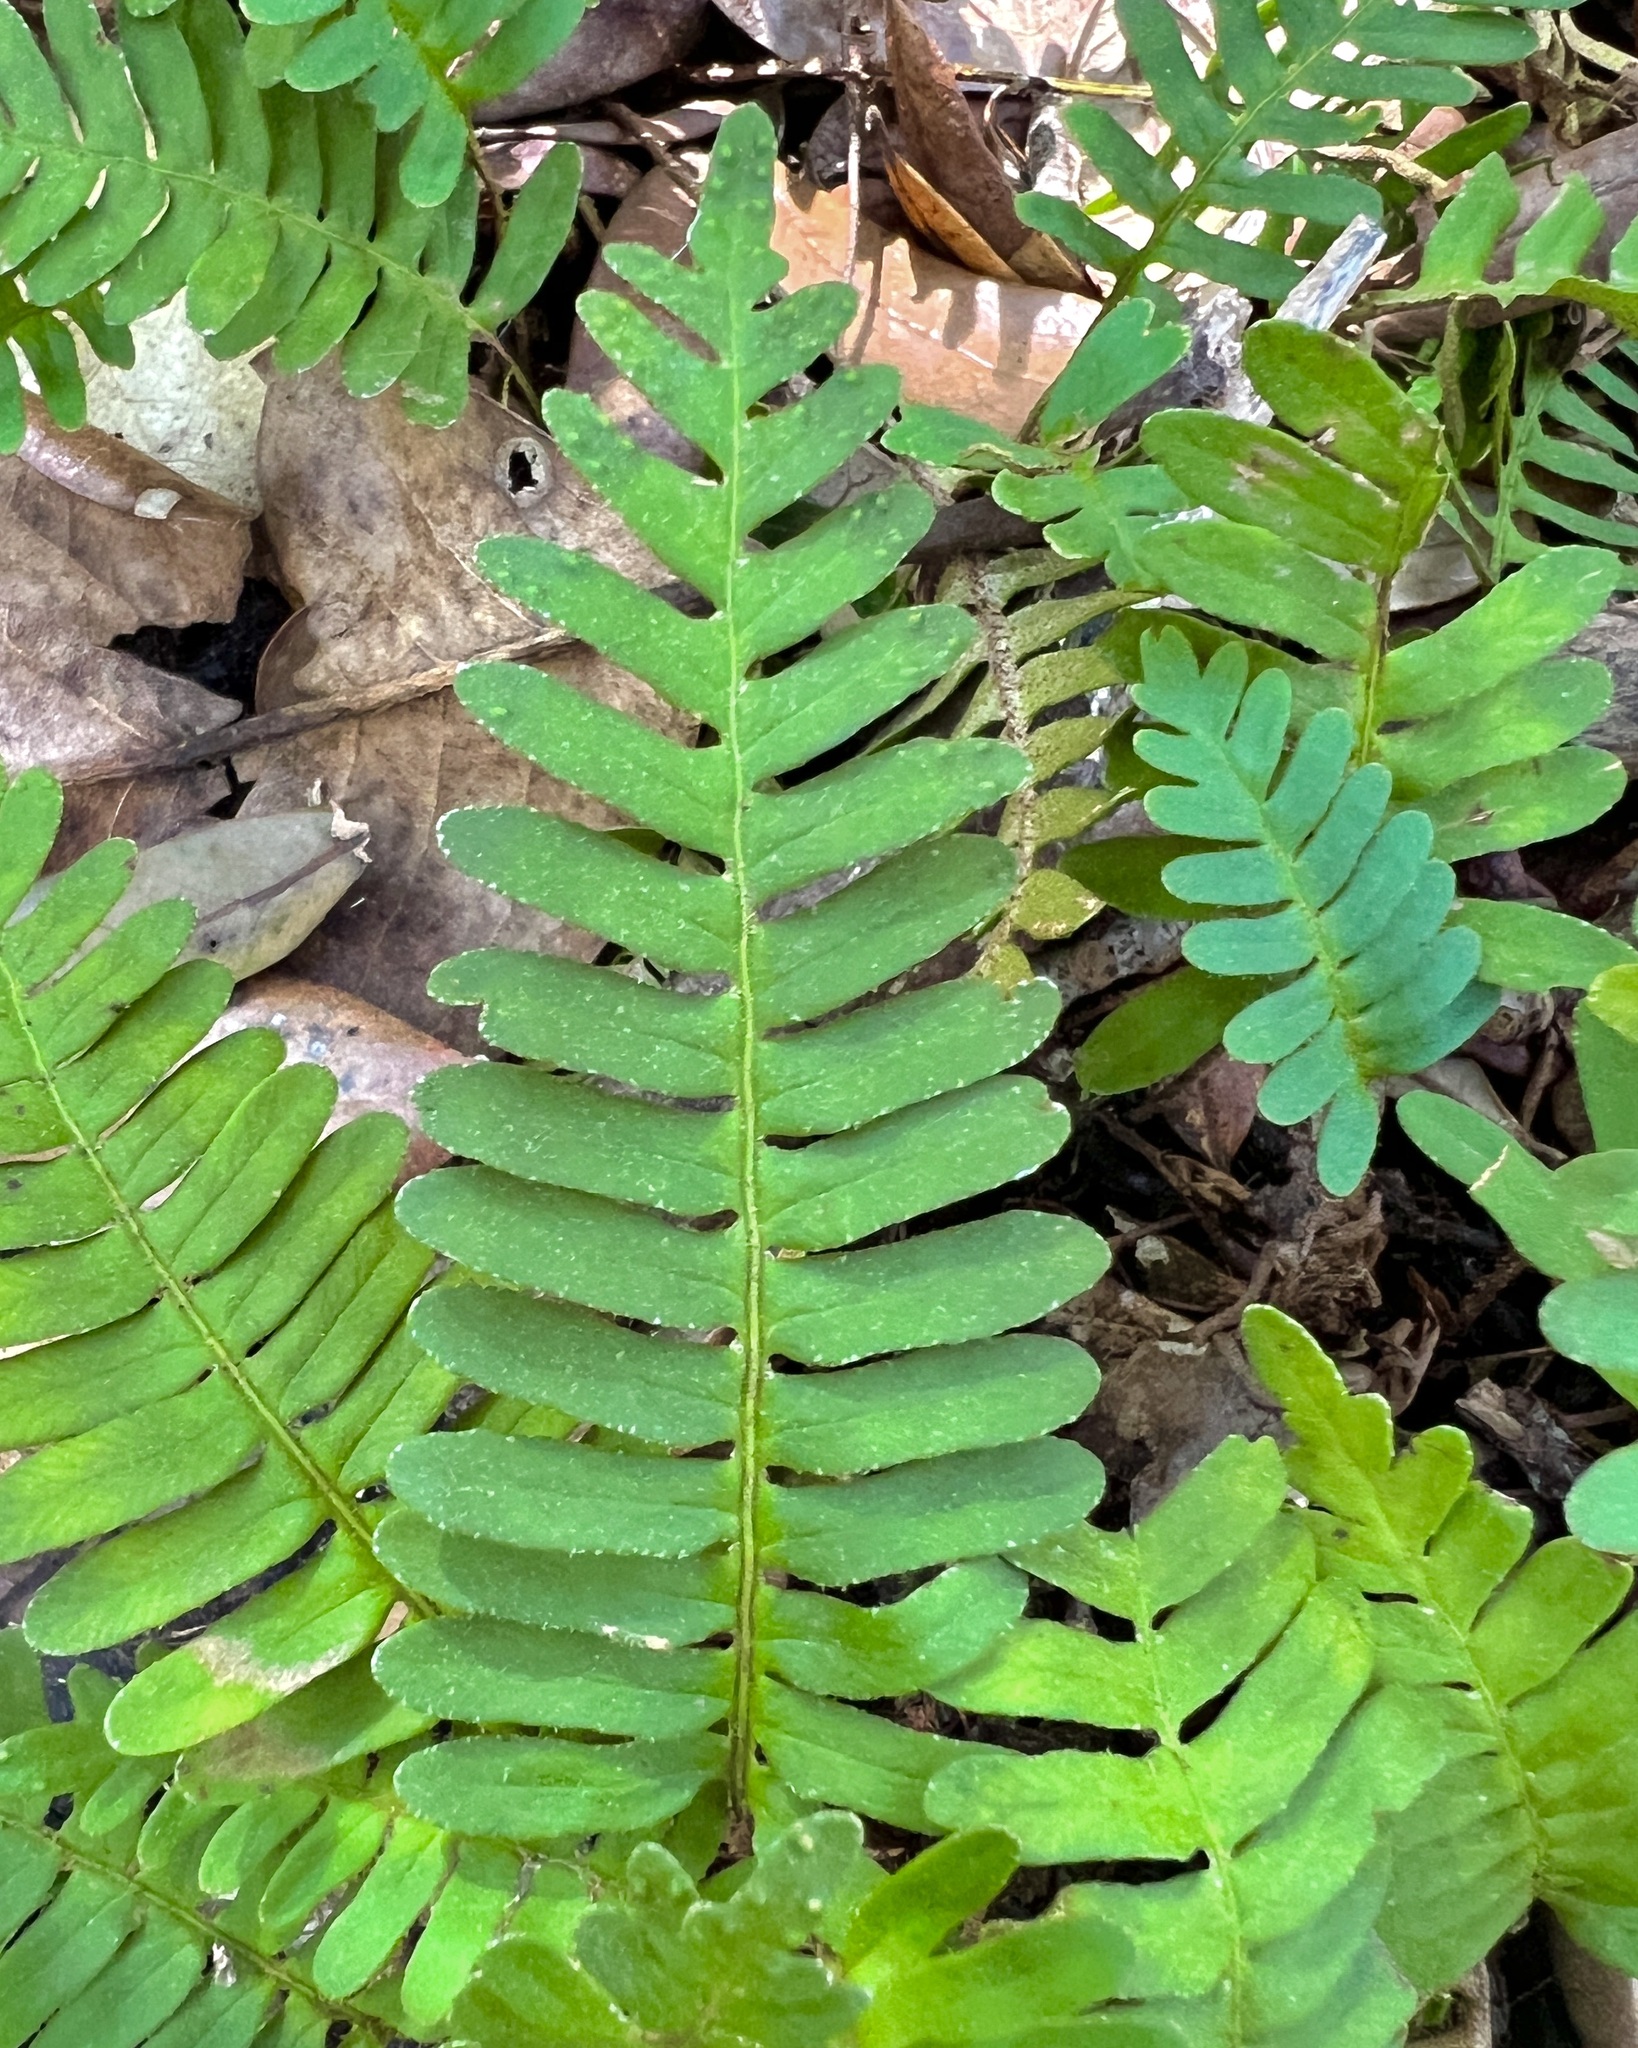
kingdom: Plantae
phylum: Tracheophyta
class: Polypodiopsida
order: Polypodiales
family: Polypodiaceae
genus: Pleopeltis
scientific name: Pleopeltis michauxiana
